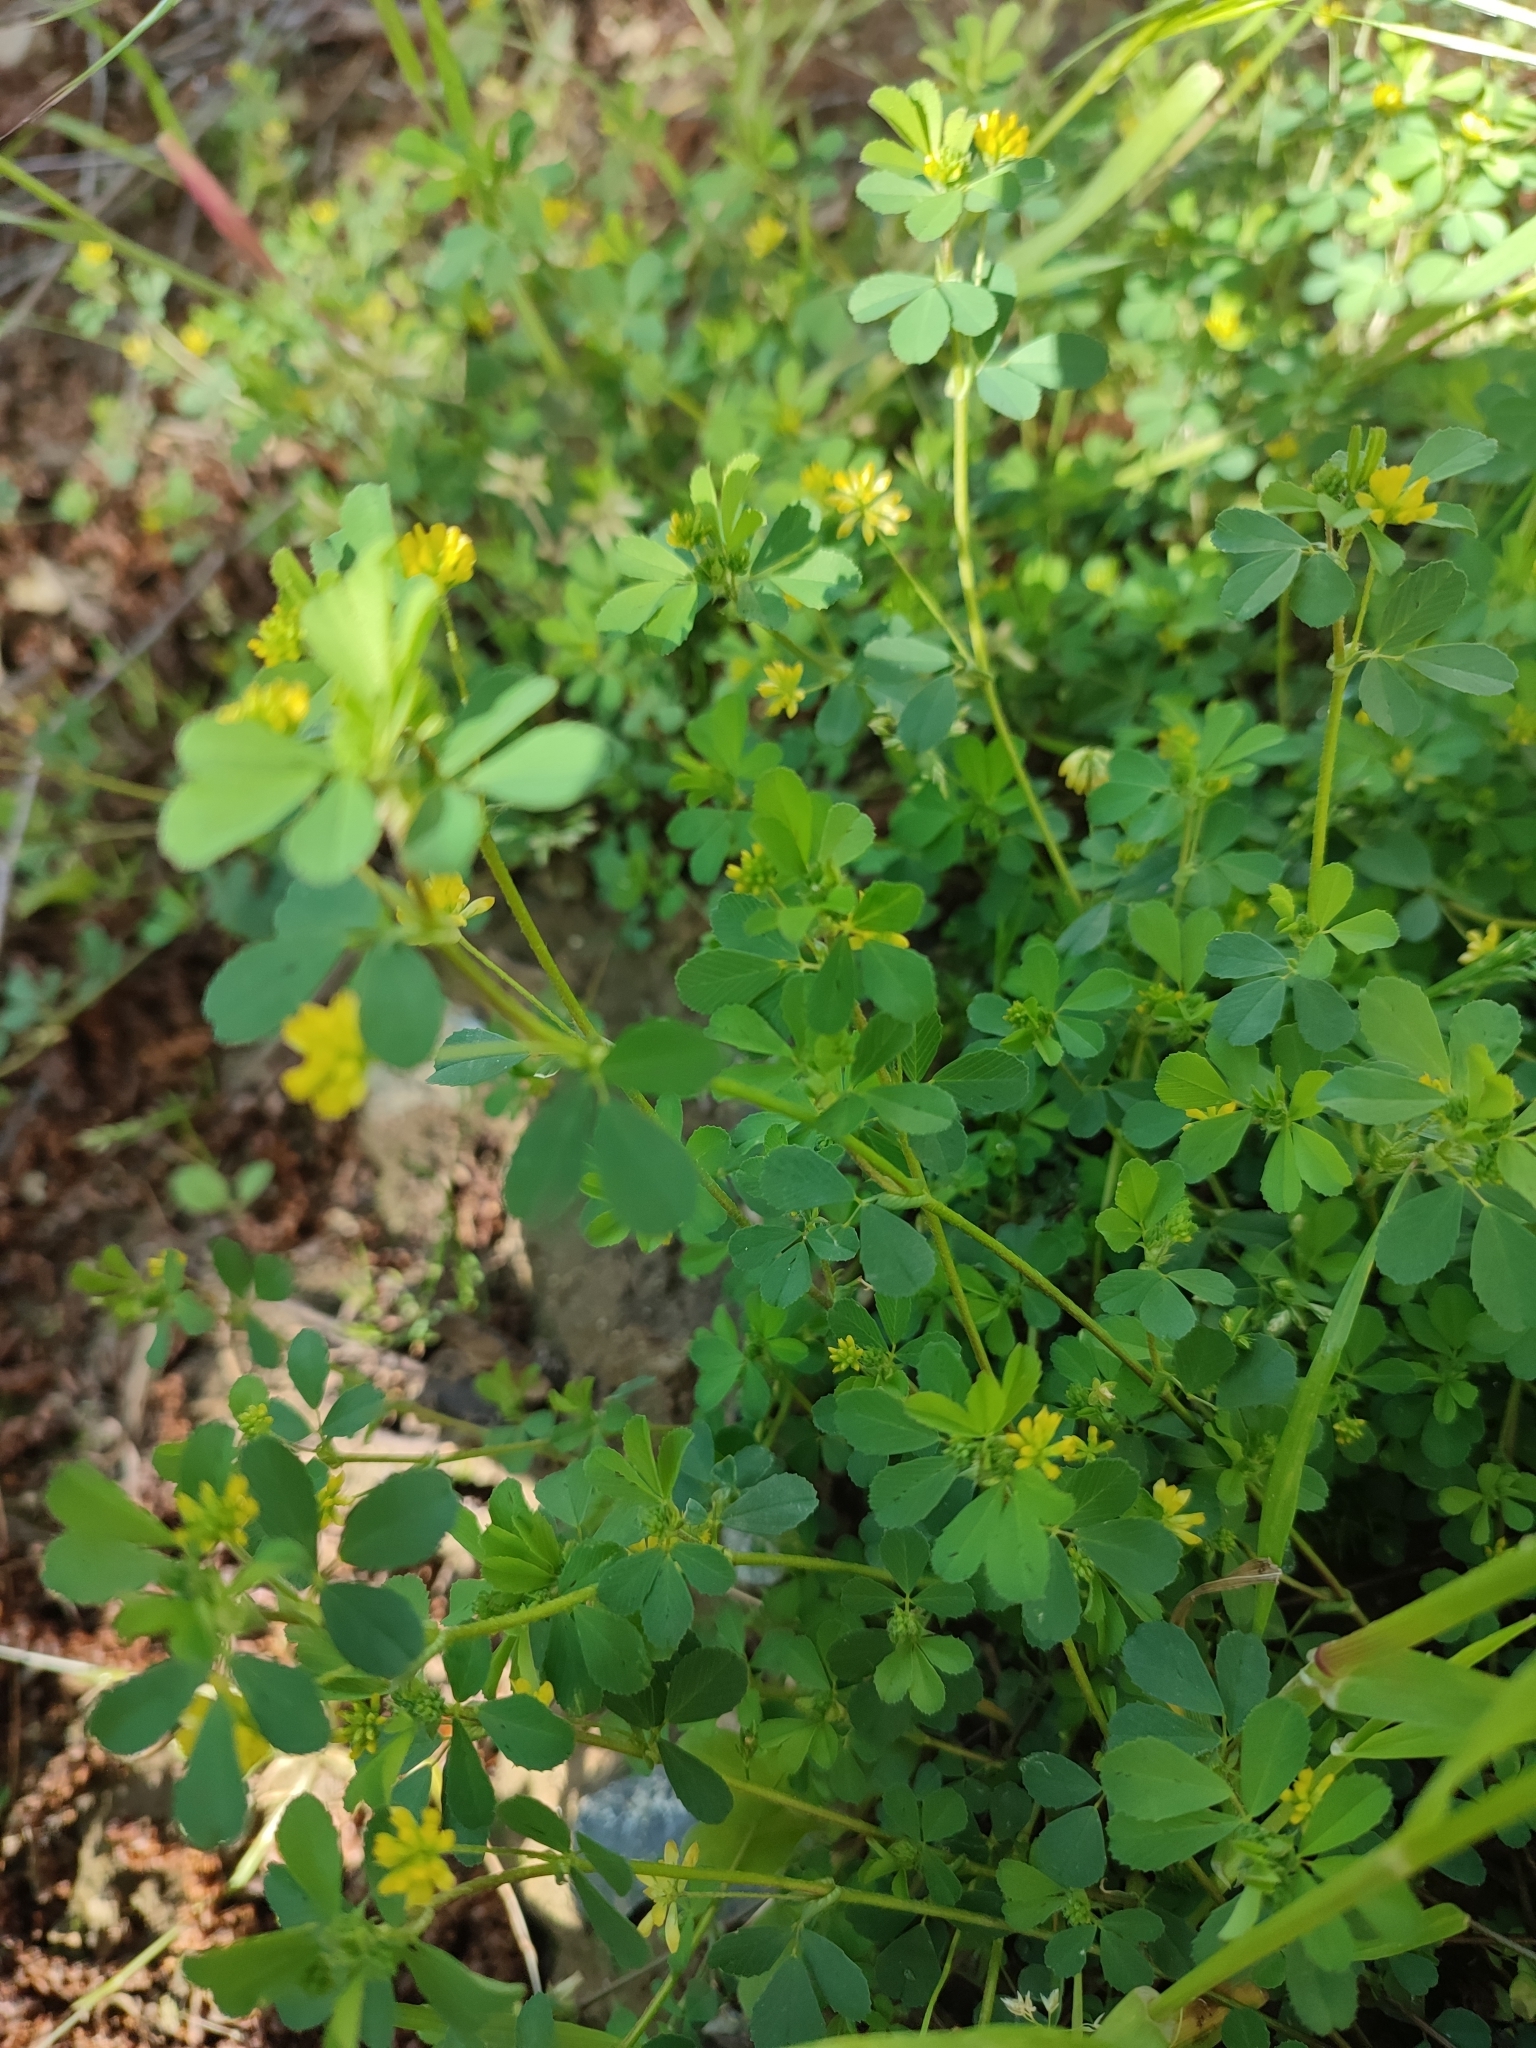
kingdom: Plantae
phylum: Tracheophyta
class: Magnoliopsida
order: Fabales
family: Fabaceae
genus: Trifolium
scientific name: Trifolium dubium
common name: Suckling clover
